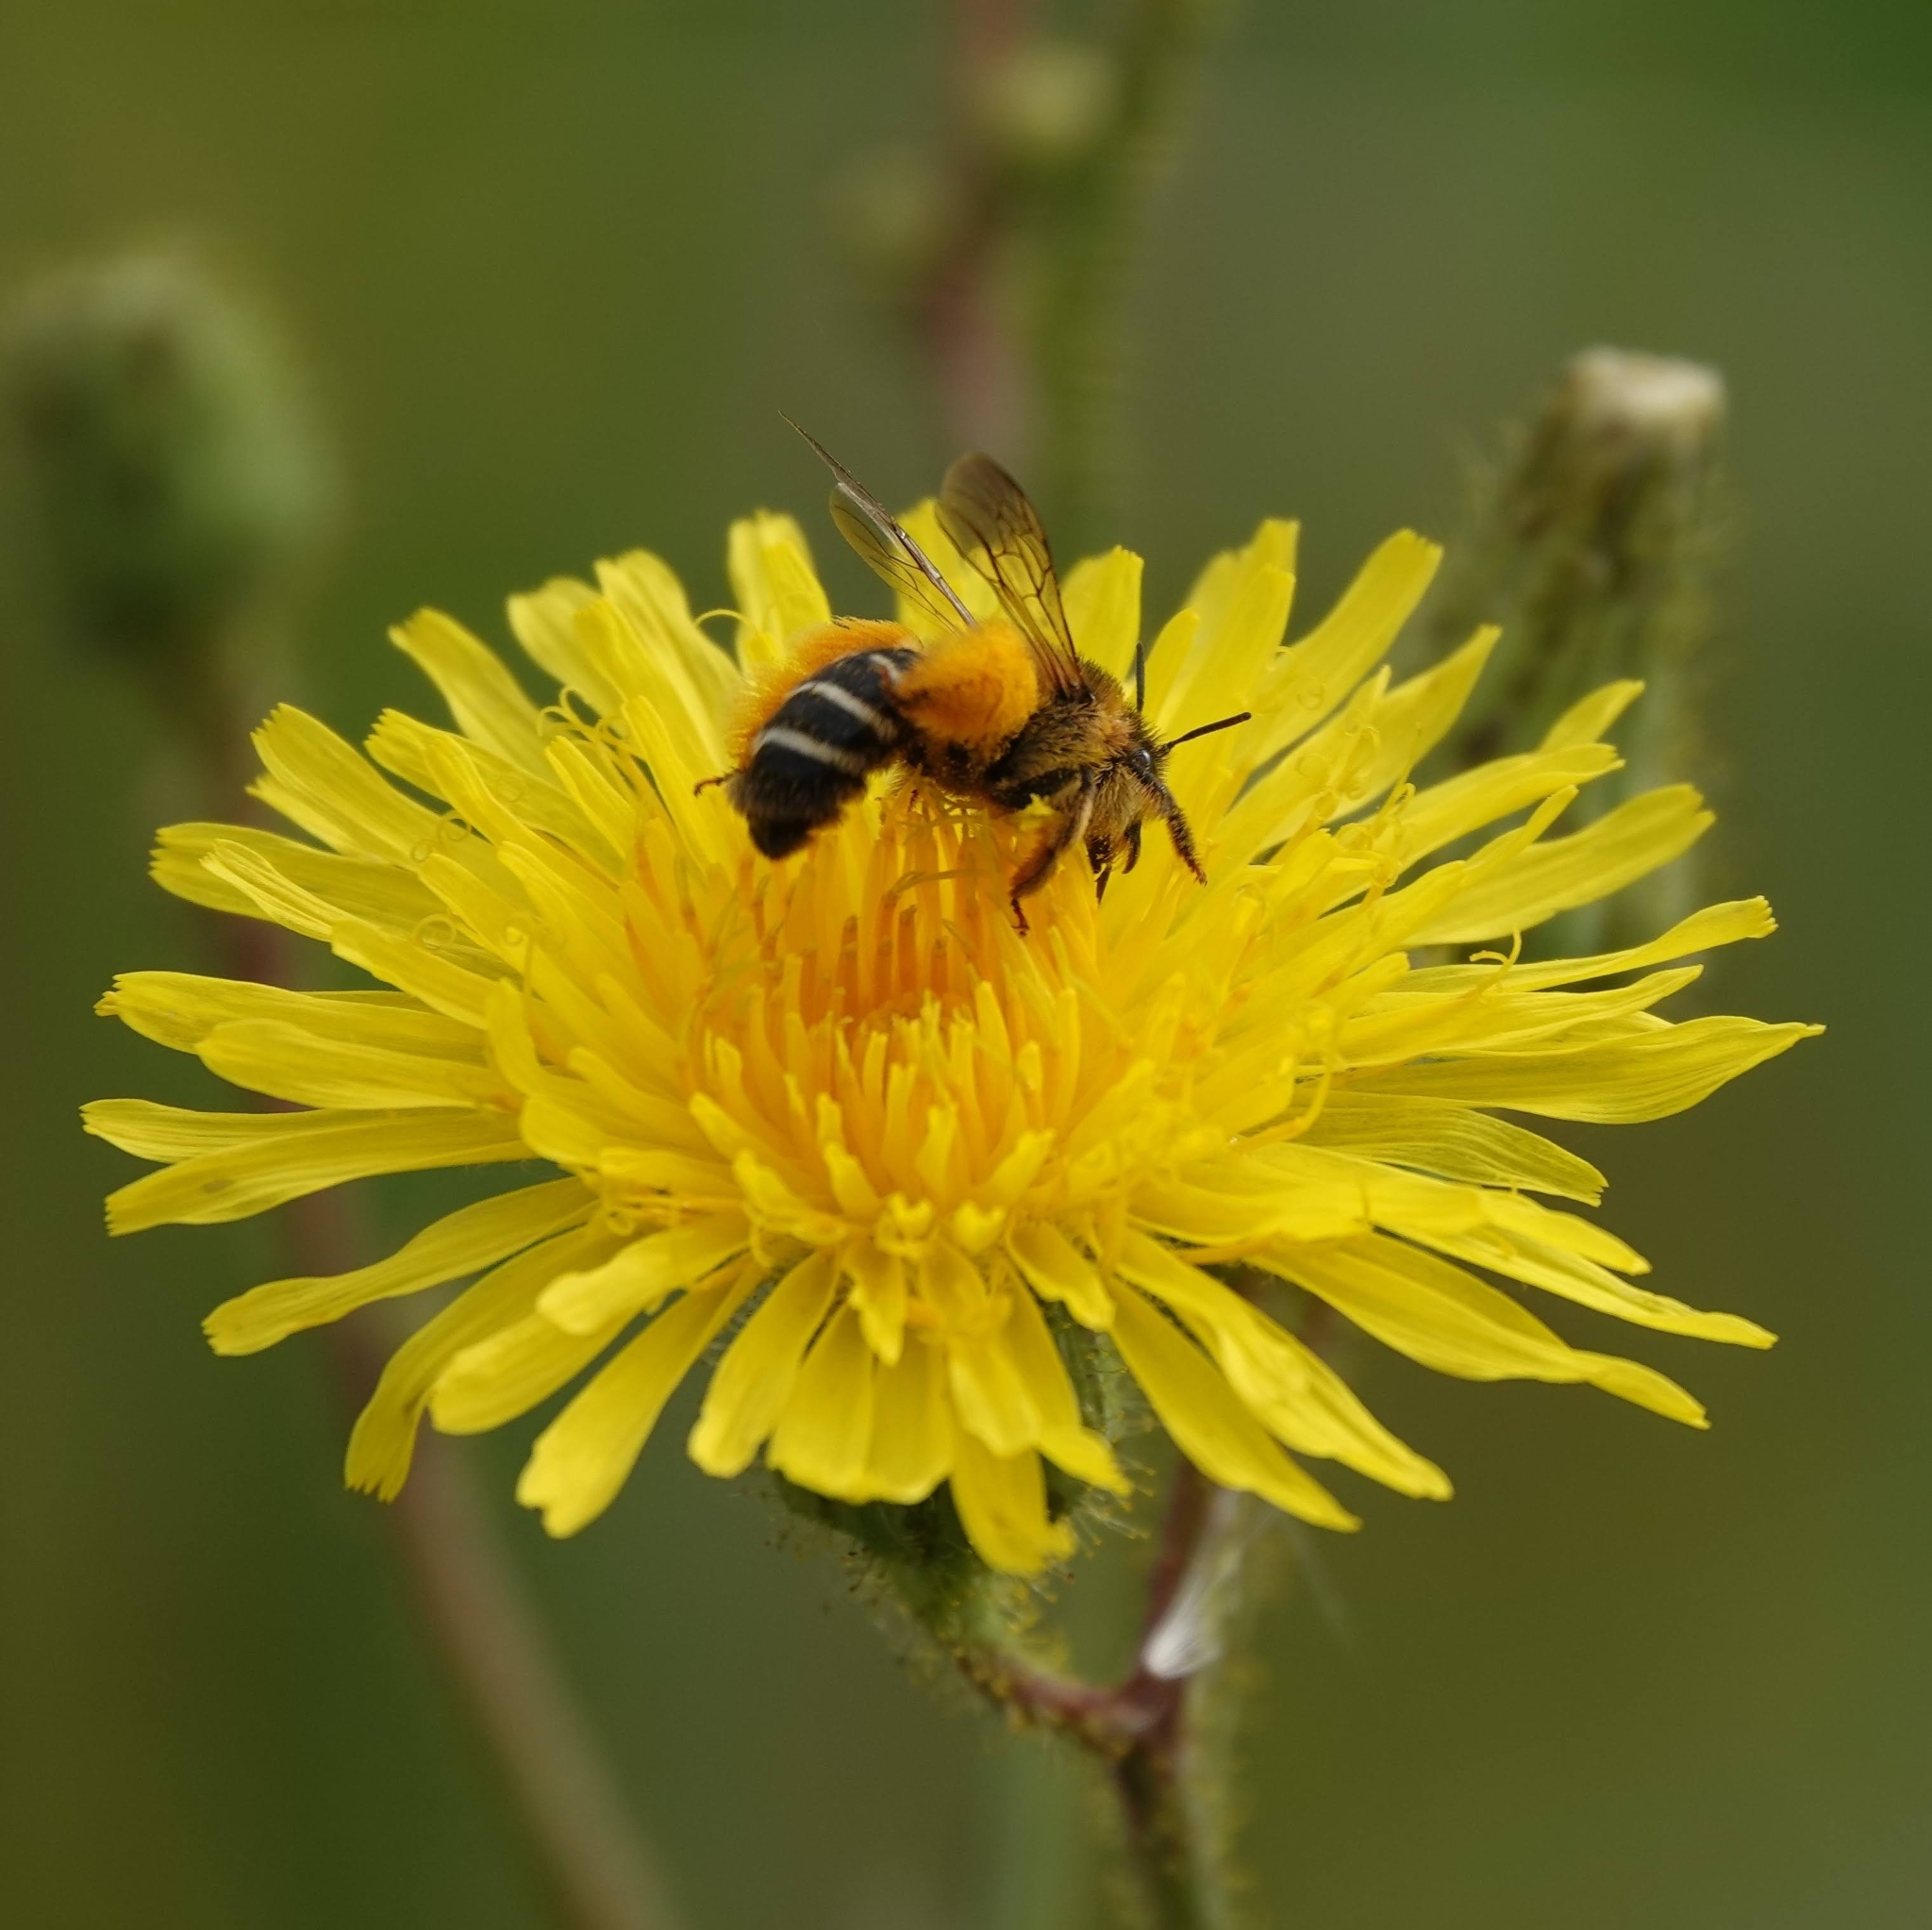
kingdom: Animalia
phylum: Arthropoda
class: Insecta
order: Hymenoptera
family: Melittidae
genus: Dasypoda
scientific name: Dasypoda hirtipes
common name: Pantaloon bee
